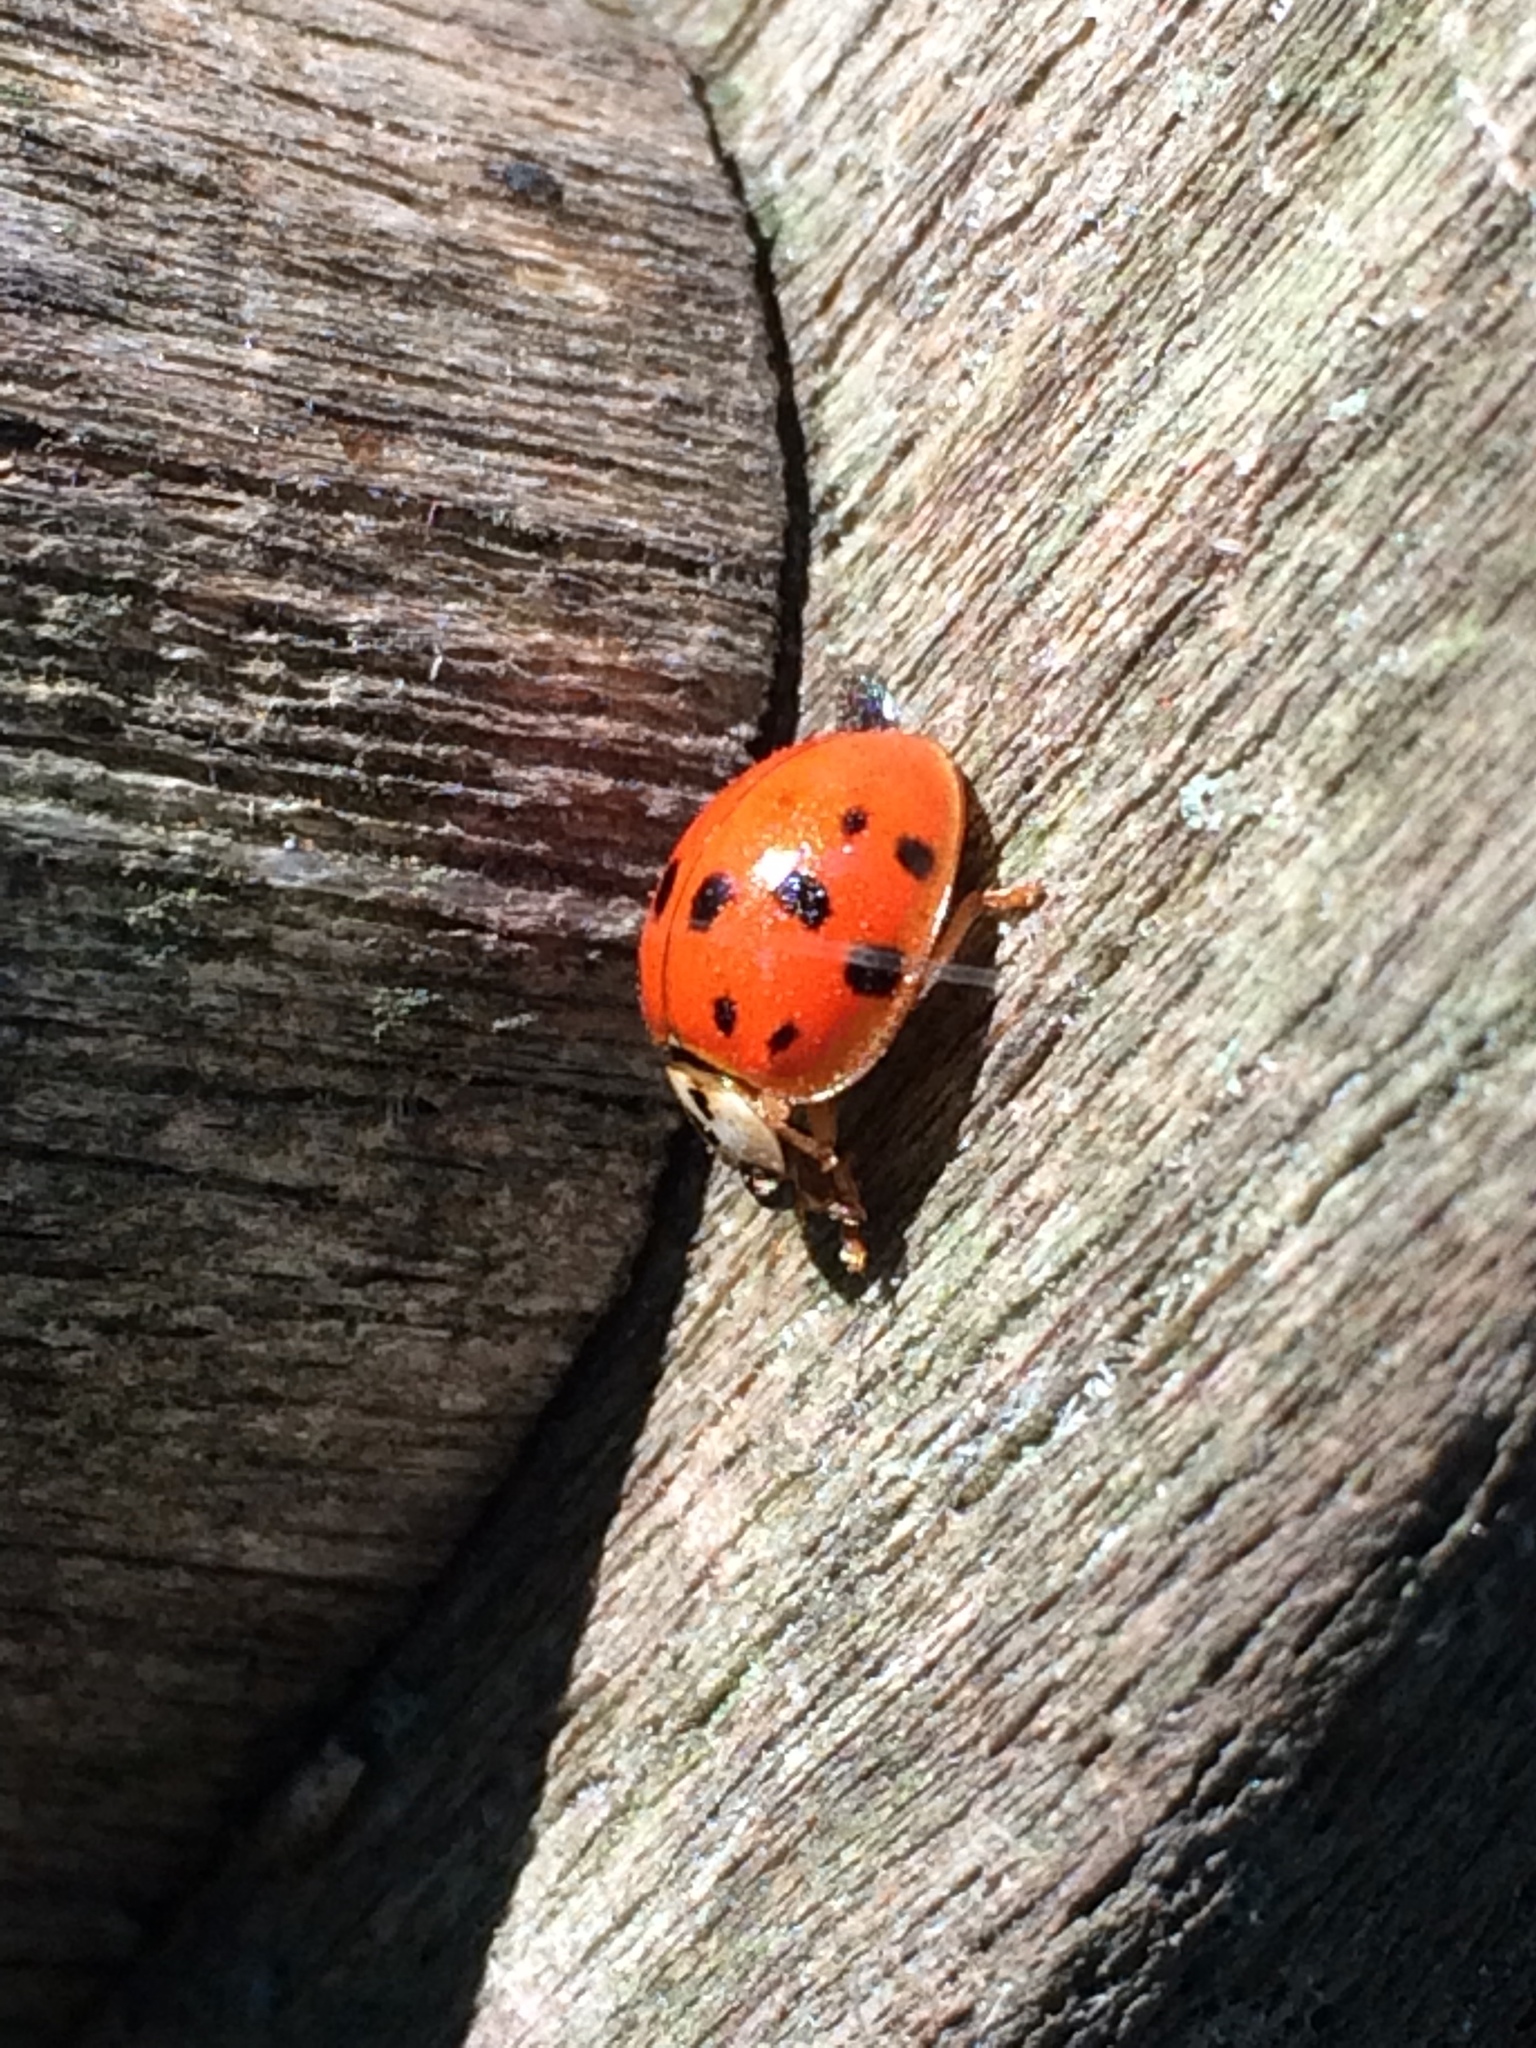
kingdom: Animalia
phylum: Arthropoda
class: Insecta
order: Coleoptera
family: Coccinellidae
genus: Harmonia
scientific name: Harmonia axyridis
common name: Harlequin ladybird
